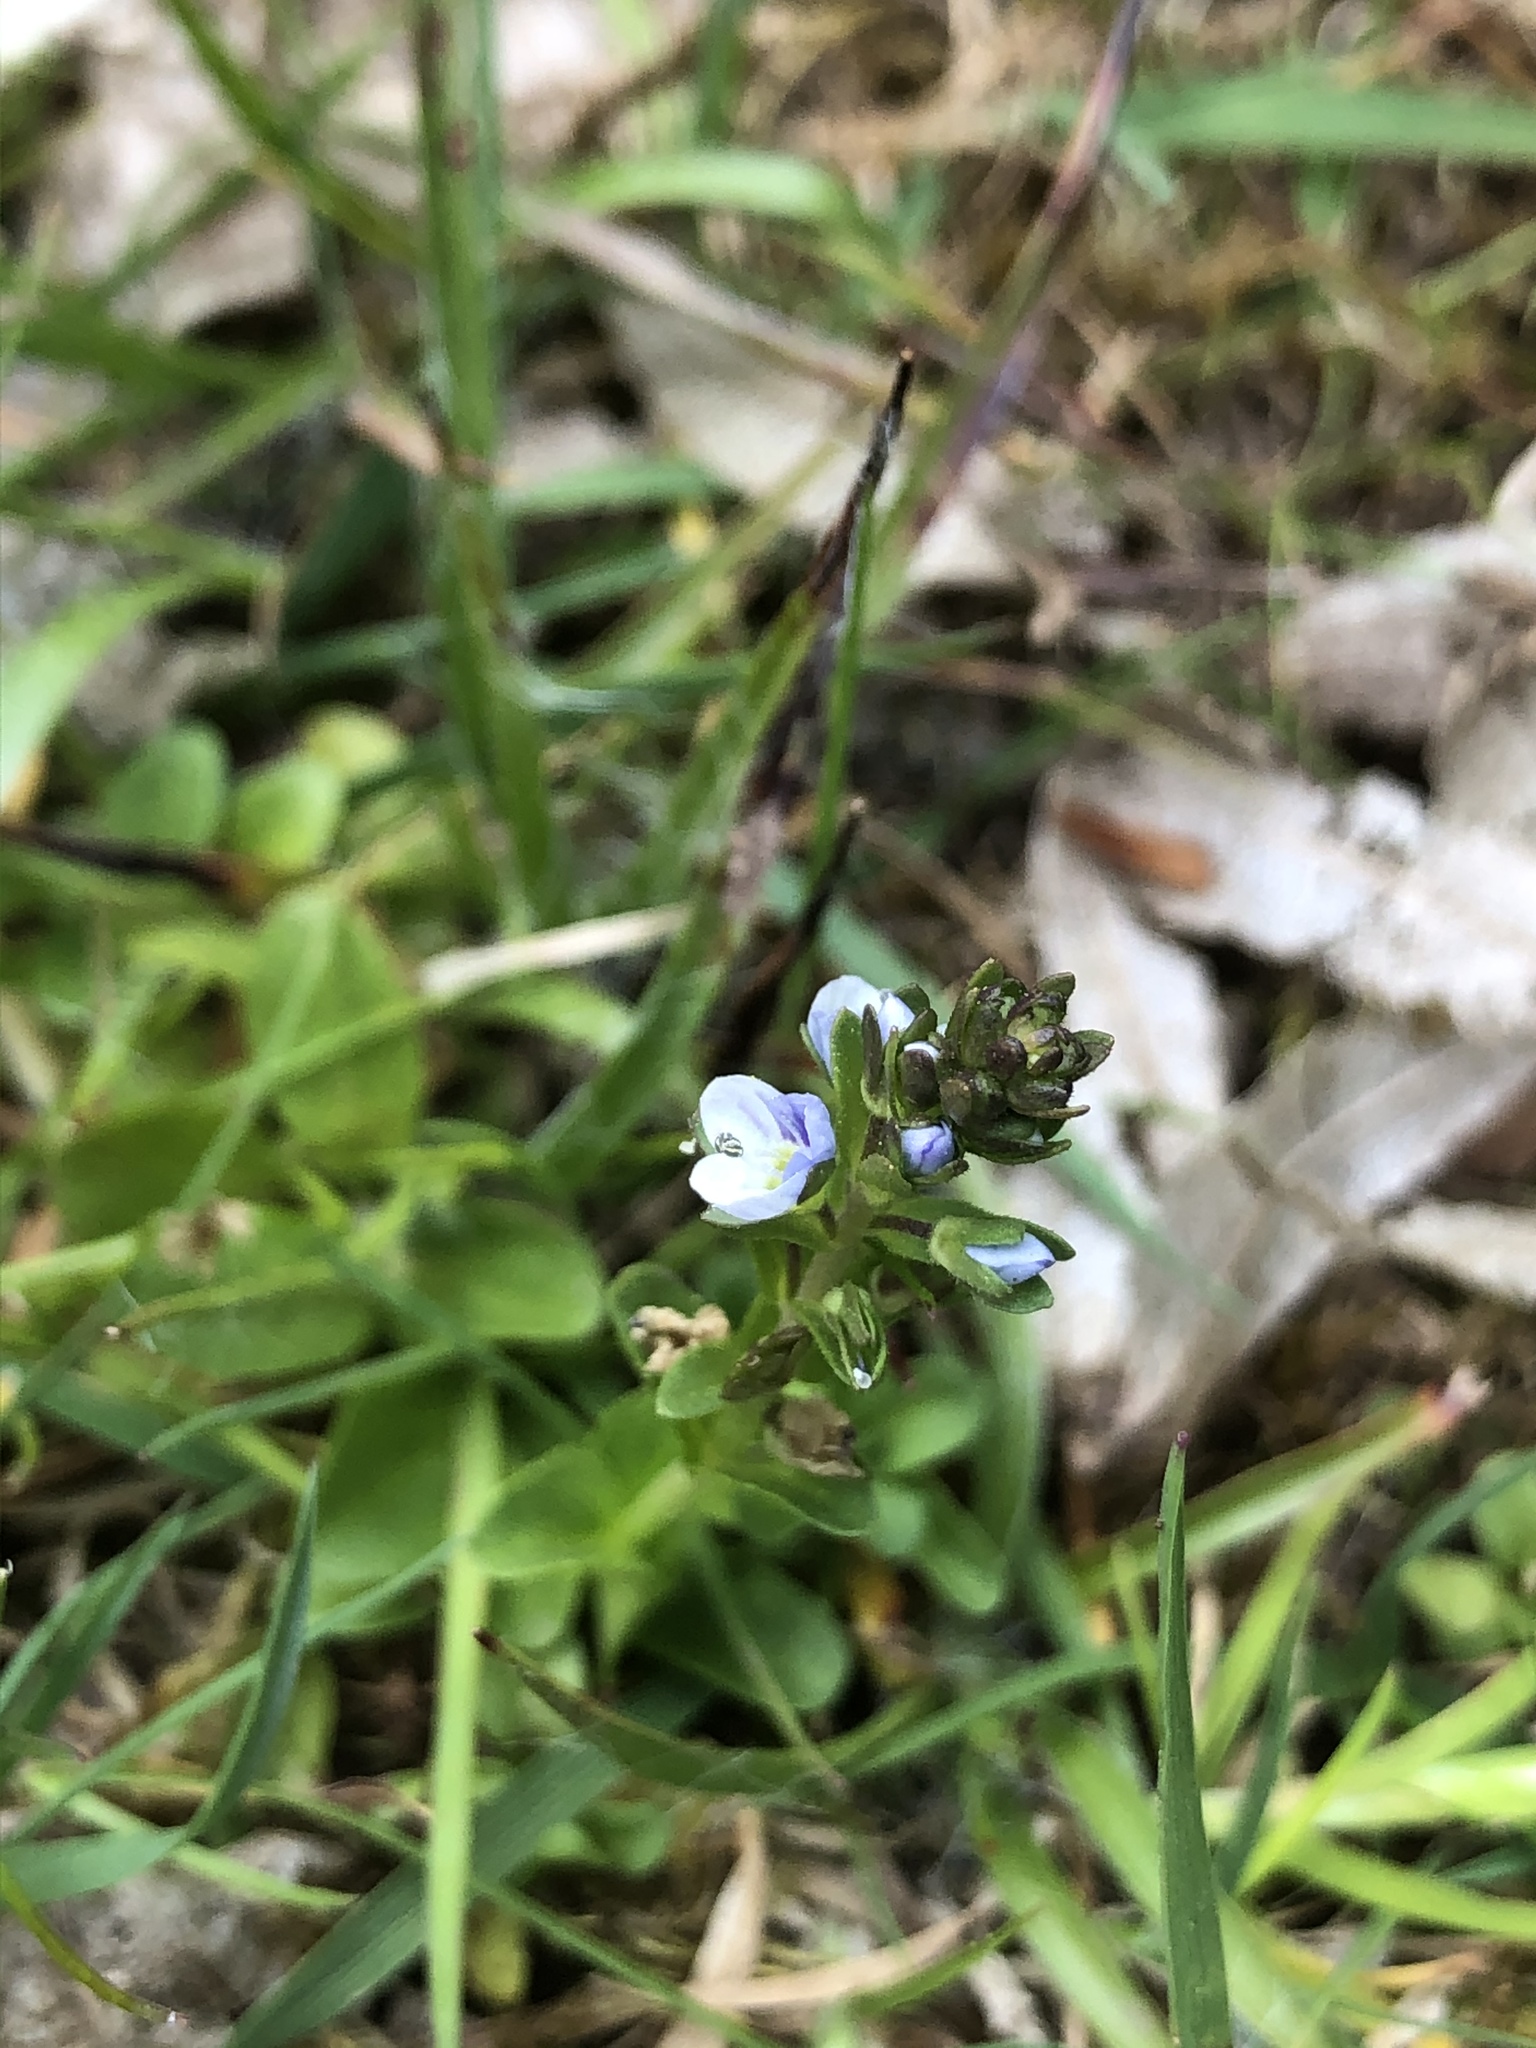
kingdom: Plantae
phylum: Tracheophyta
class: Magnoliopsida
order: Lamiales
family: Plantaginaceae
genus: Veronica
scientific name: Veronica serpyllifolia
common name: Thyme-leaved speedwell
